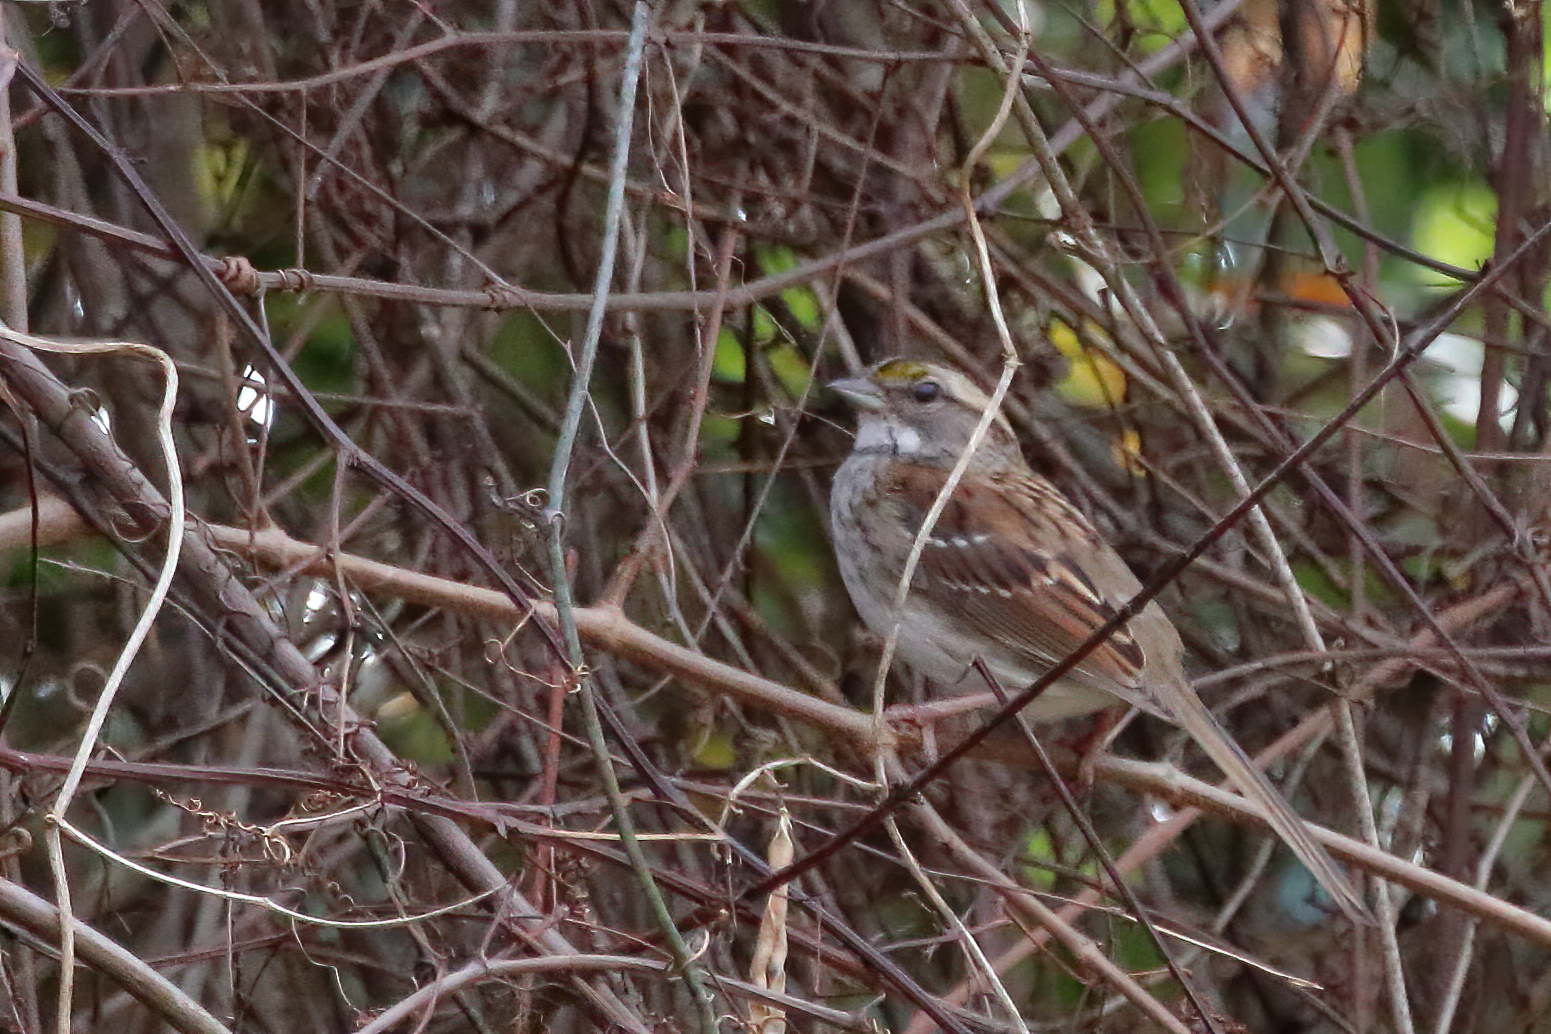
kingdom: Animalia
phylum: Chordata
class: Aves
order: Passeriformes
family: Passerellidae
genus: Zonotrichia
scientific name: Zonotrichia albicollis
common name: White-throated sparrow
